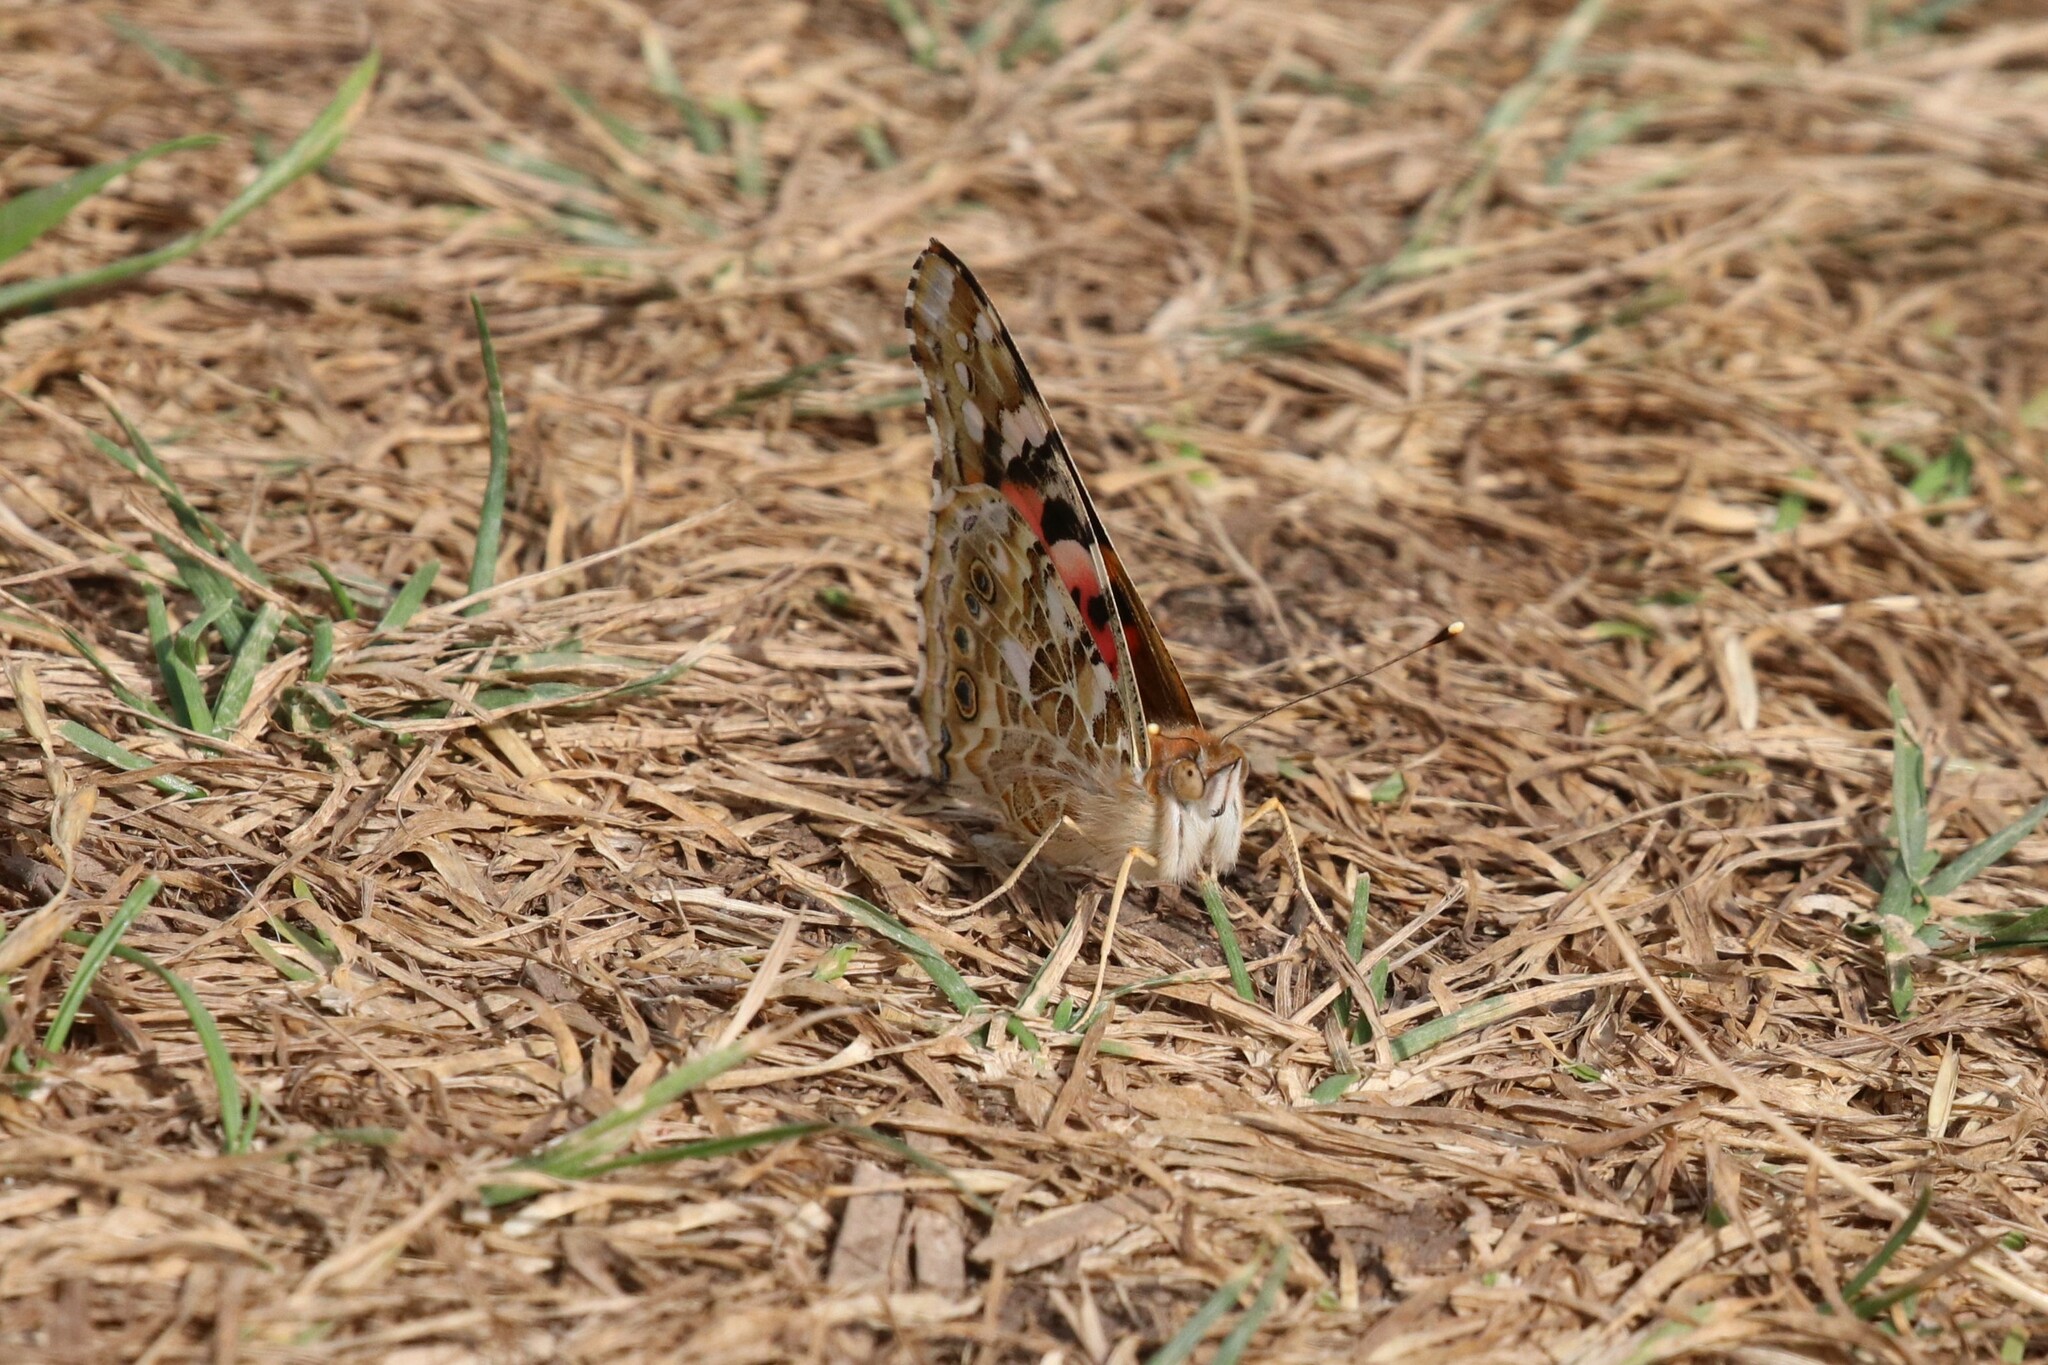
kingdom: Animalia
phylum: Arthropoda
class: Insecta
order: Lepidoptera
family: Nymphalidae
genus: Vanessa
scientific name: Vanessa cardui
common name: Painted lady
